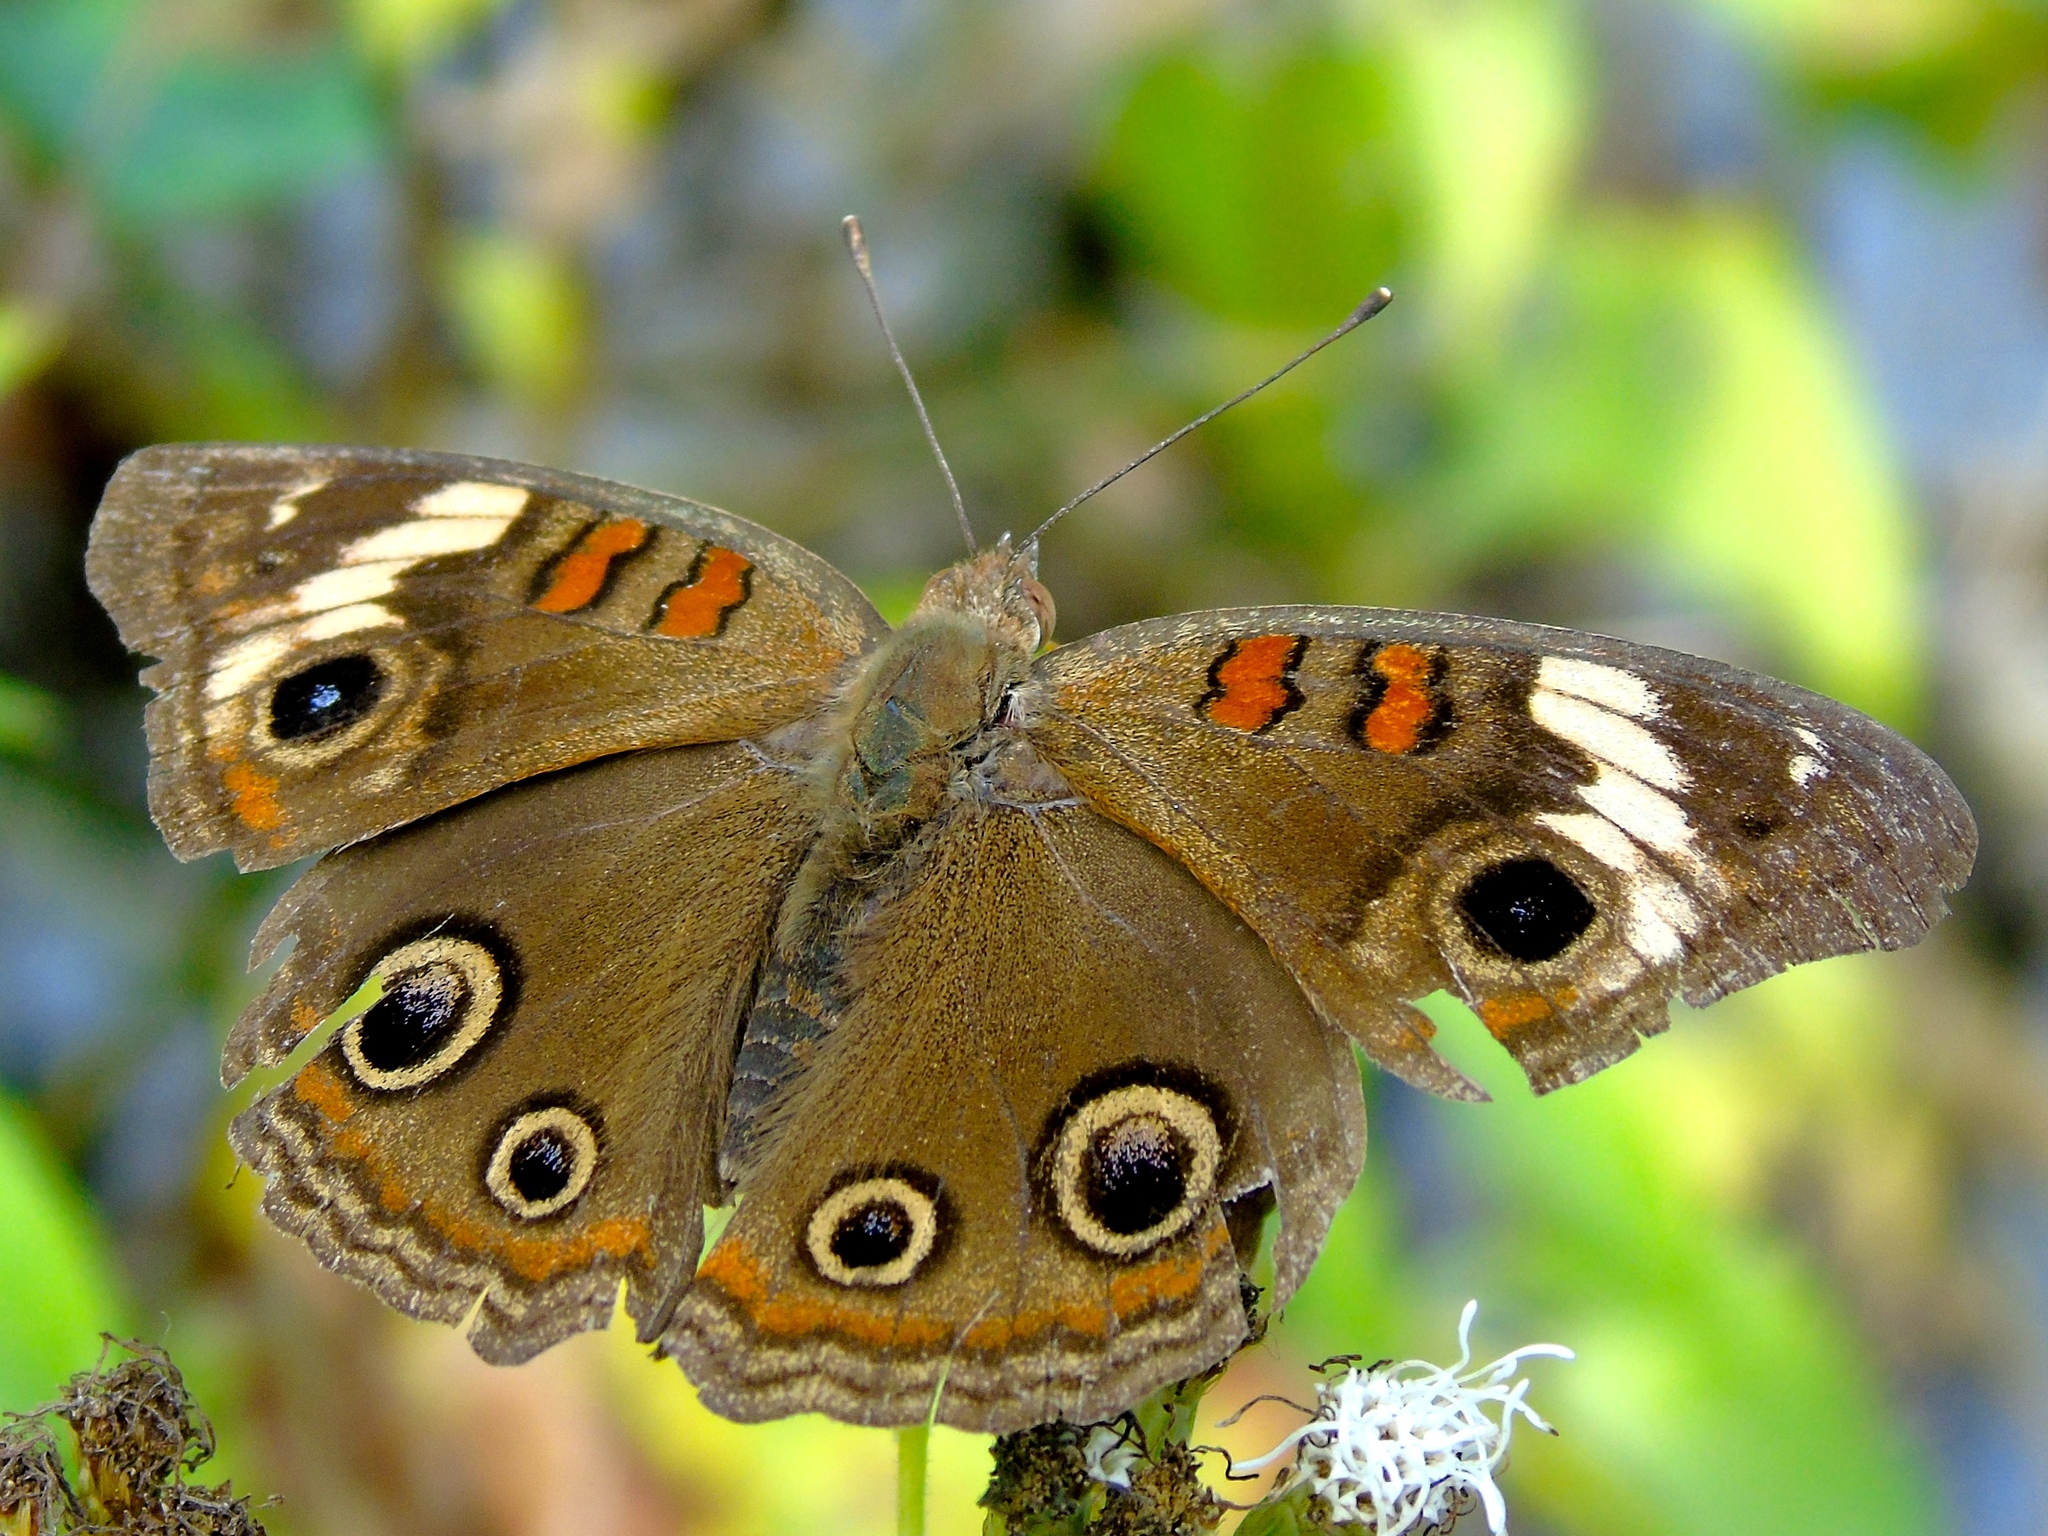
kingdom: Animalia
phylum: Arthropoda
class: Insecta
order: Lepidoptera
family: Nymphalidae
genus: Junonia
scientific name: Junonia
